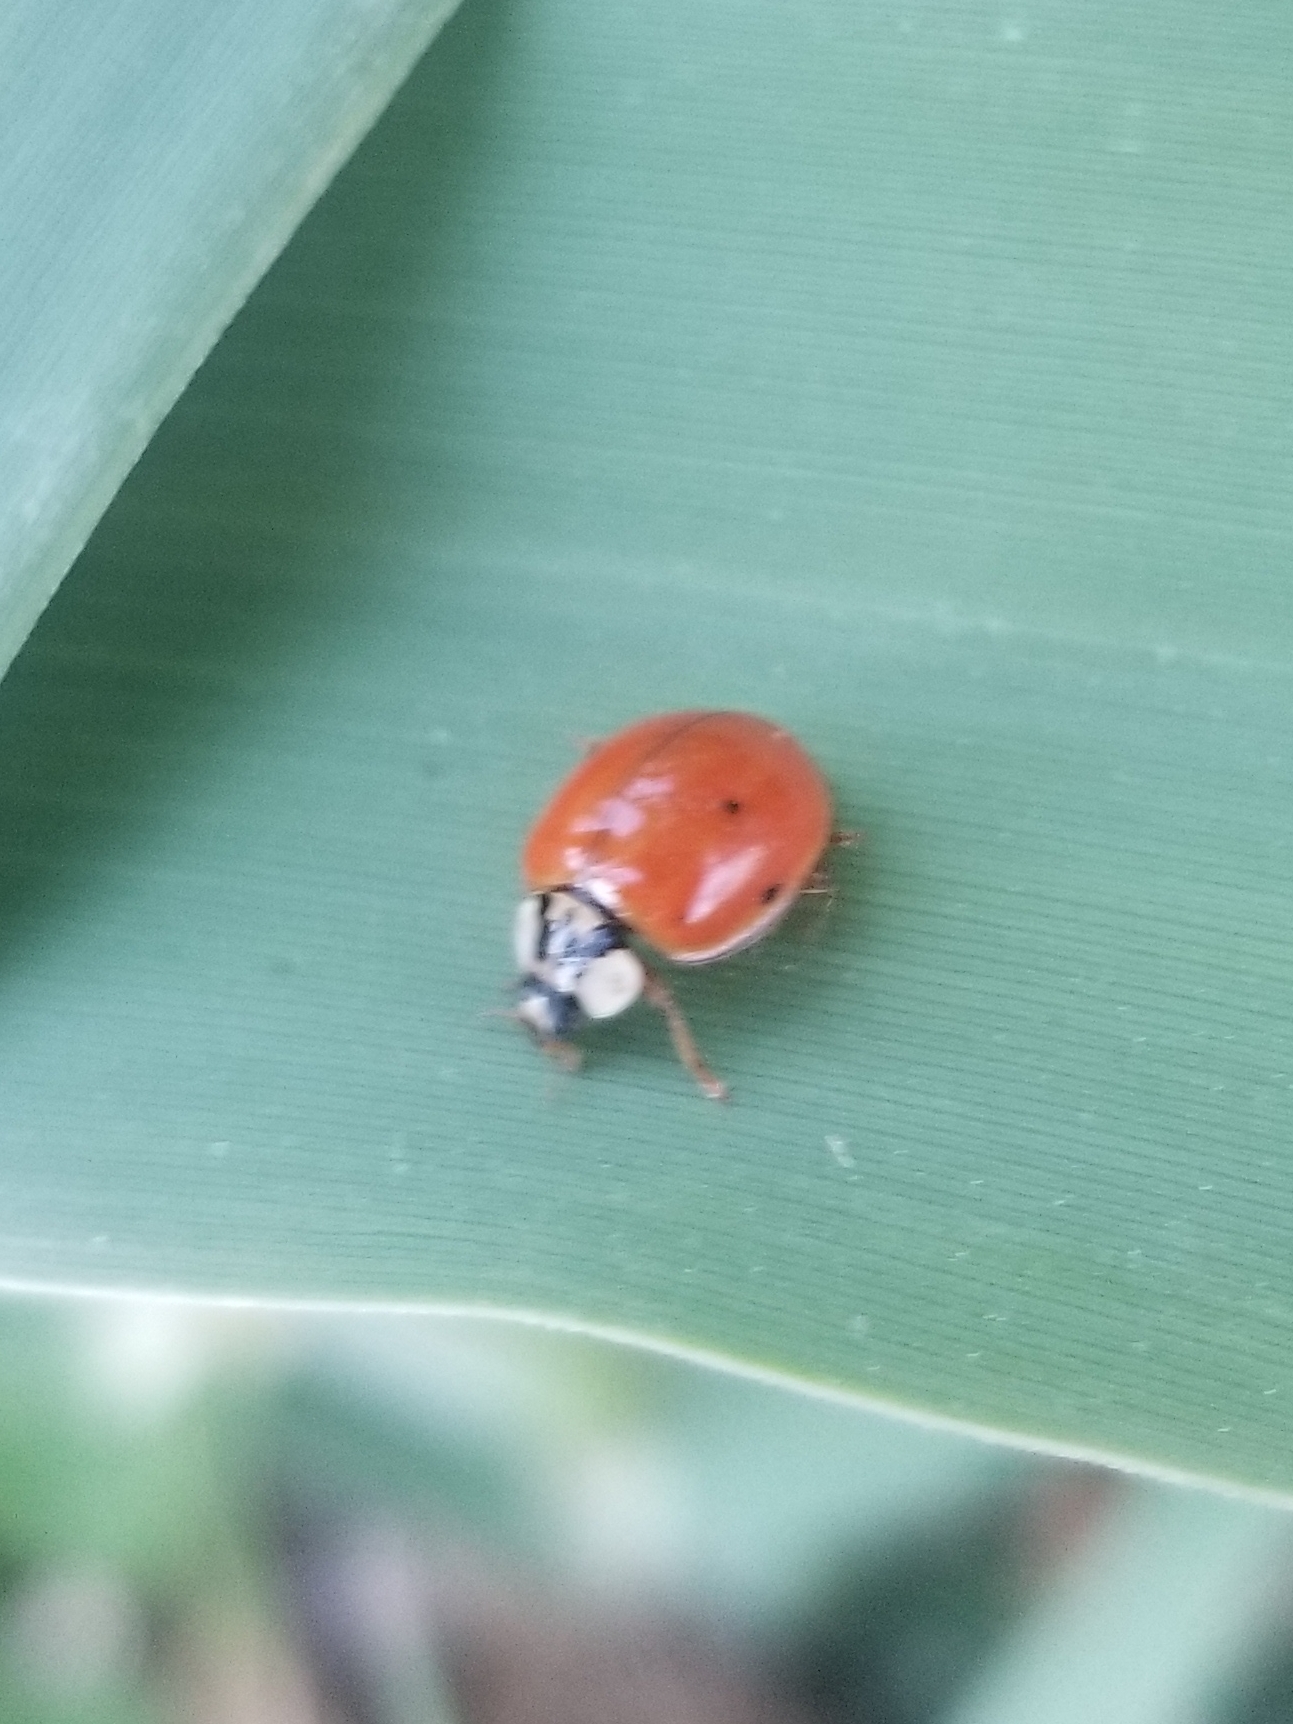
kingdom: Animalia
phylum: Arthropoda
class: Insecta
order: Coleoptera
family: Coccinellidae
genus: Harmonia
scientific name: Harmonia axyridis
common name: Harlequin ladybird
